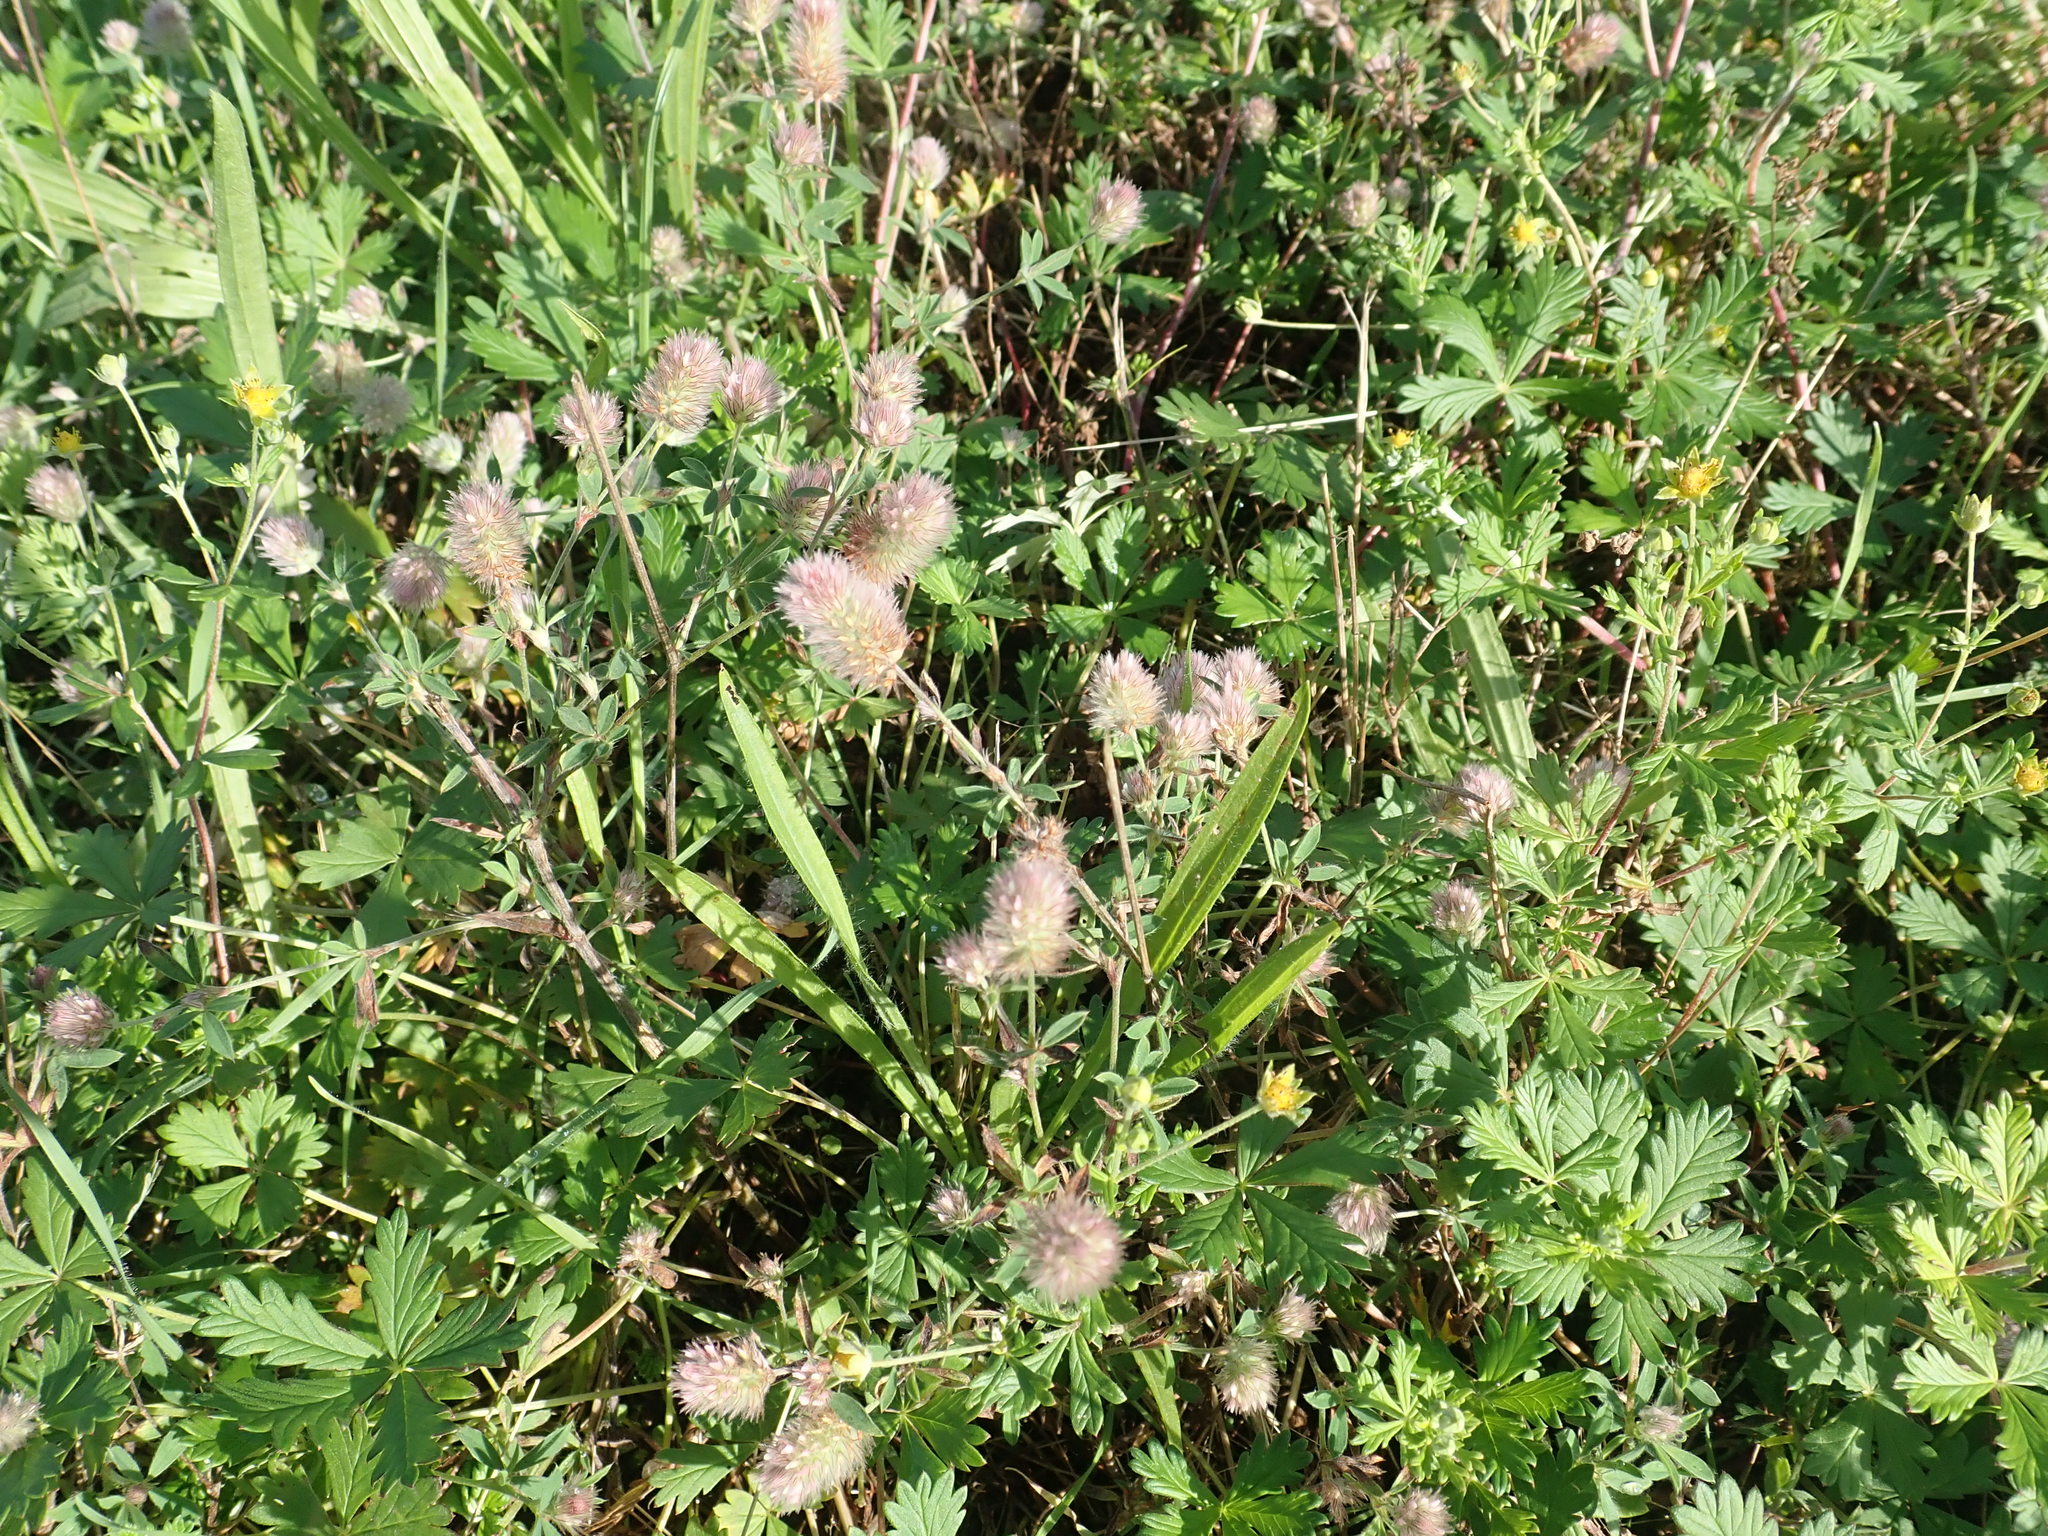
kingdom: Plantae
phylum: Tracheophyta
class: Magnoliopsida
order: Fabales
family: Fabaceae
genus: Trifolium
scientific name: Trifolium arvense
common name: Hare's-foot clover
